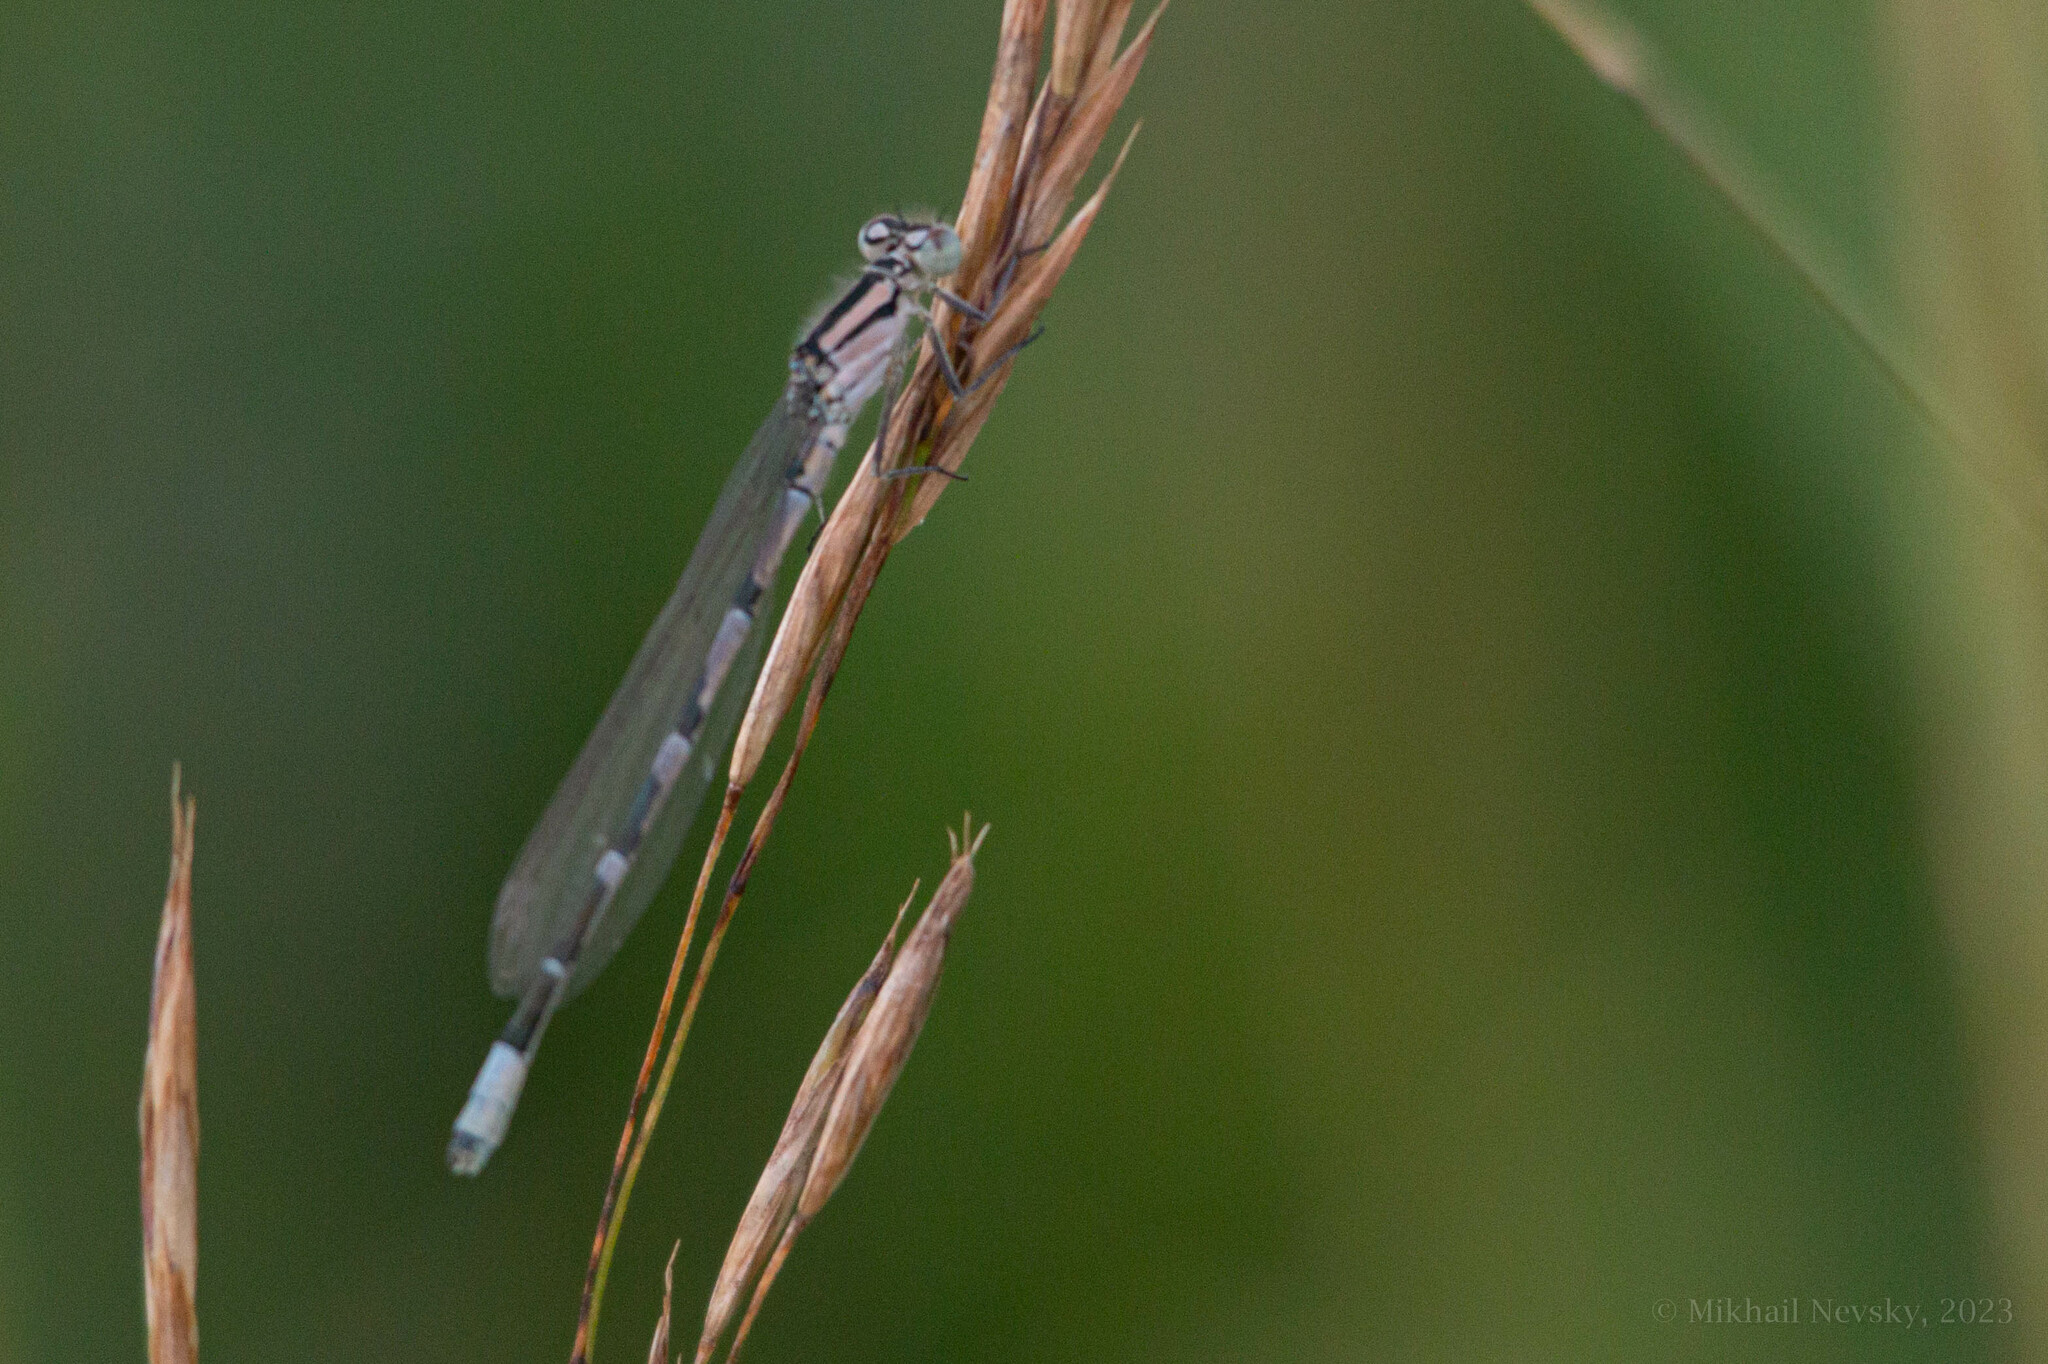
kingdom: Animalia
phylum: Arthropoda
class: Insecta
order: Odonata
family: Coenagrionidae
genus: Enallagma
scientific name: Enallagma cyathigerum
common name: Common blue damselfly
